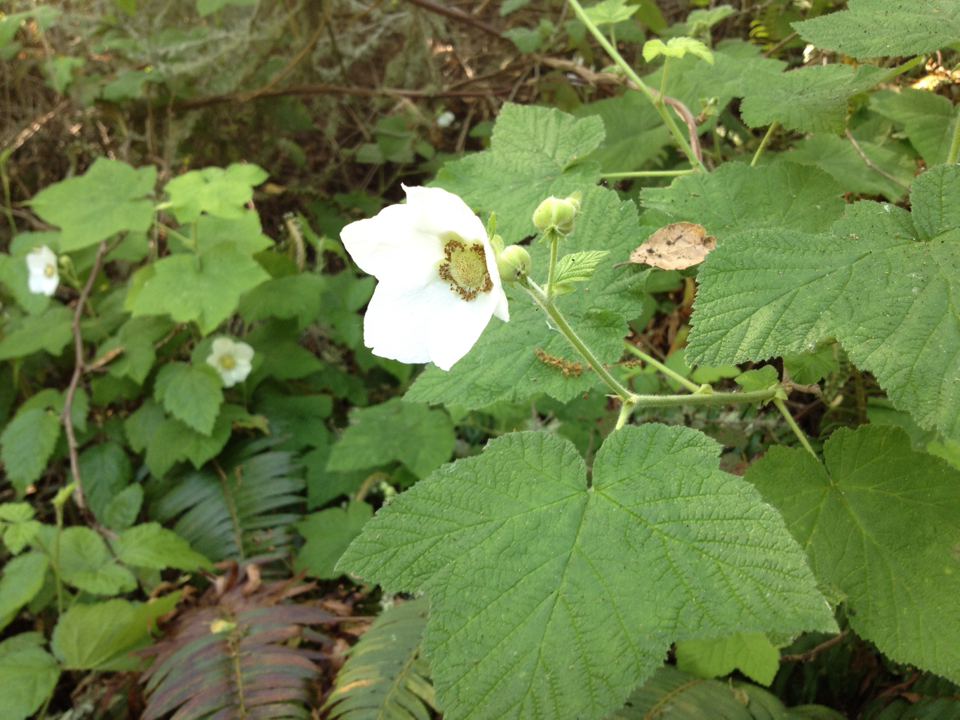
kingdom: Plantae
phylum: Tracheophyta
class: Magnoliopsida
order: Rosales
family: Rosaceae
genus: Rubus
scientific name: Rubus parviflorus
